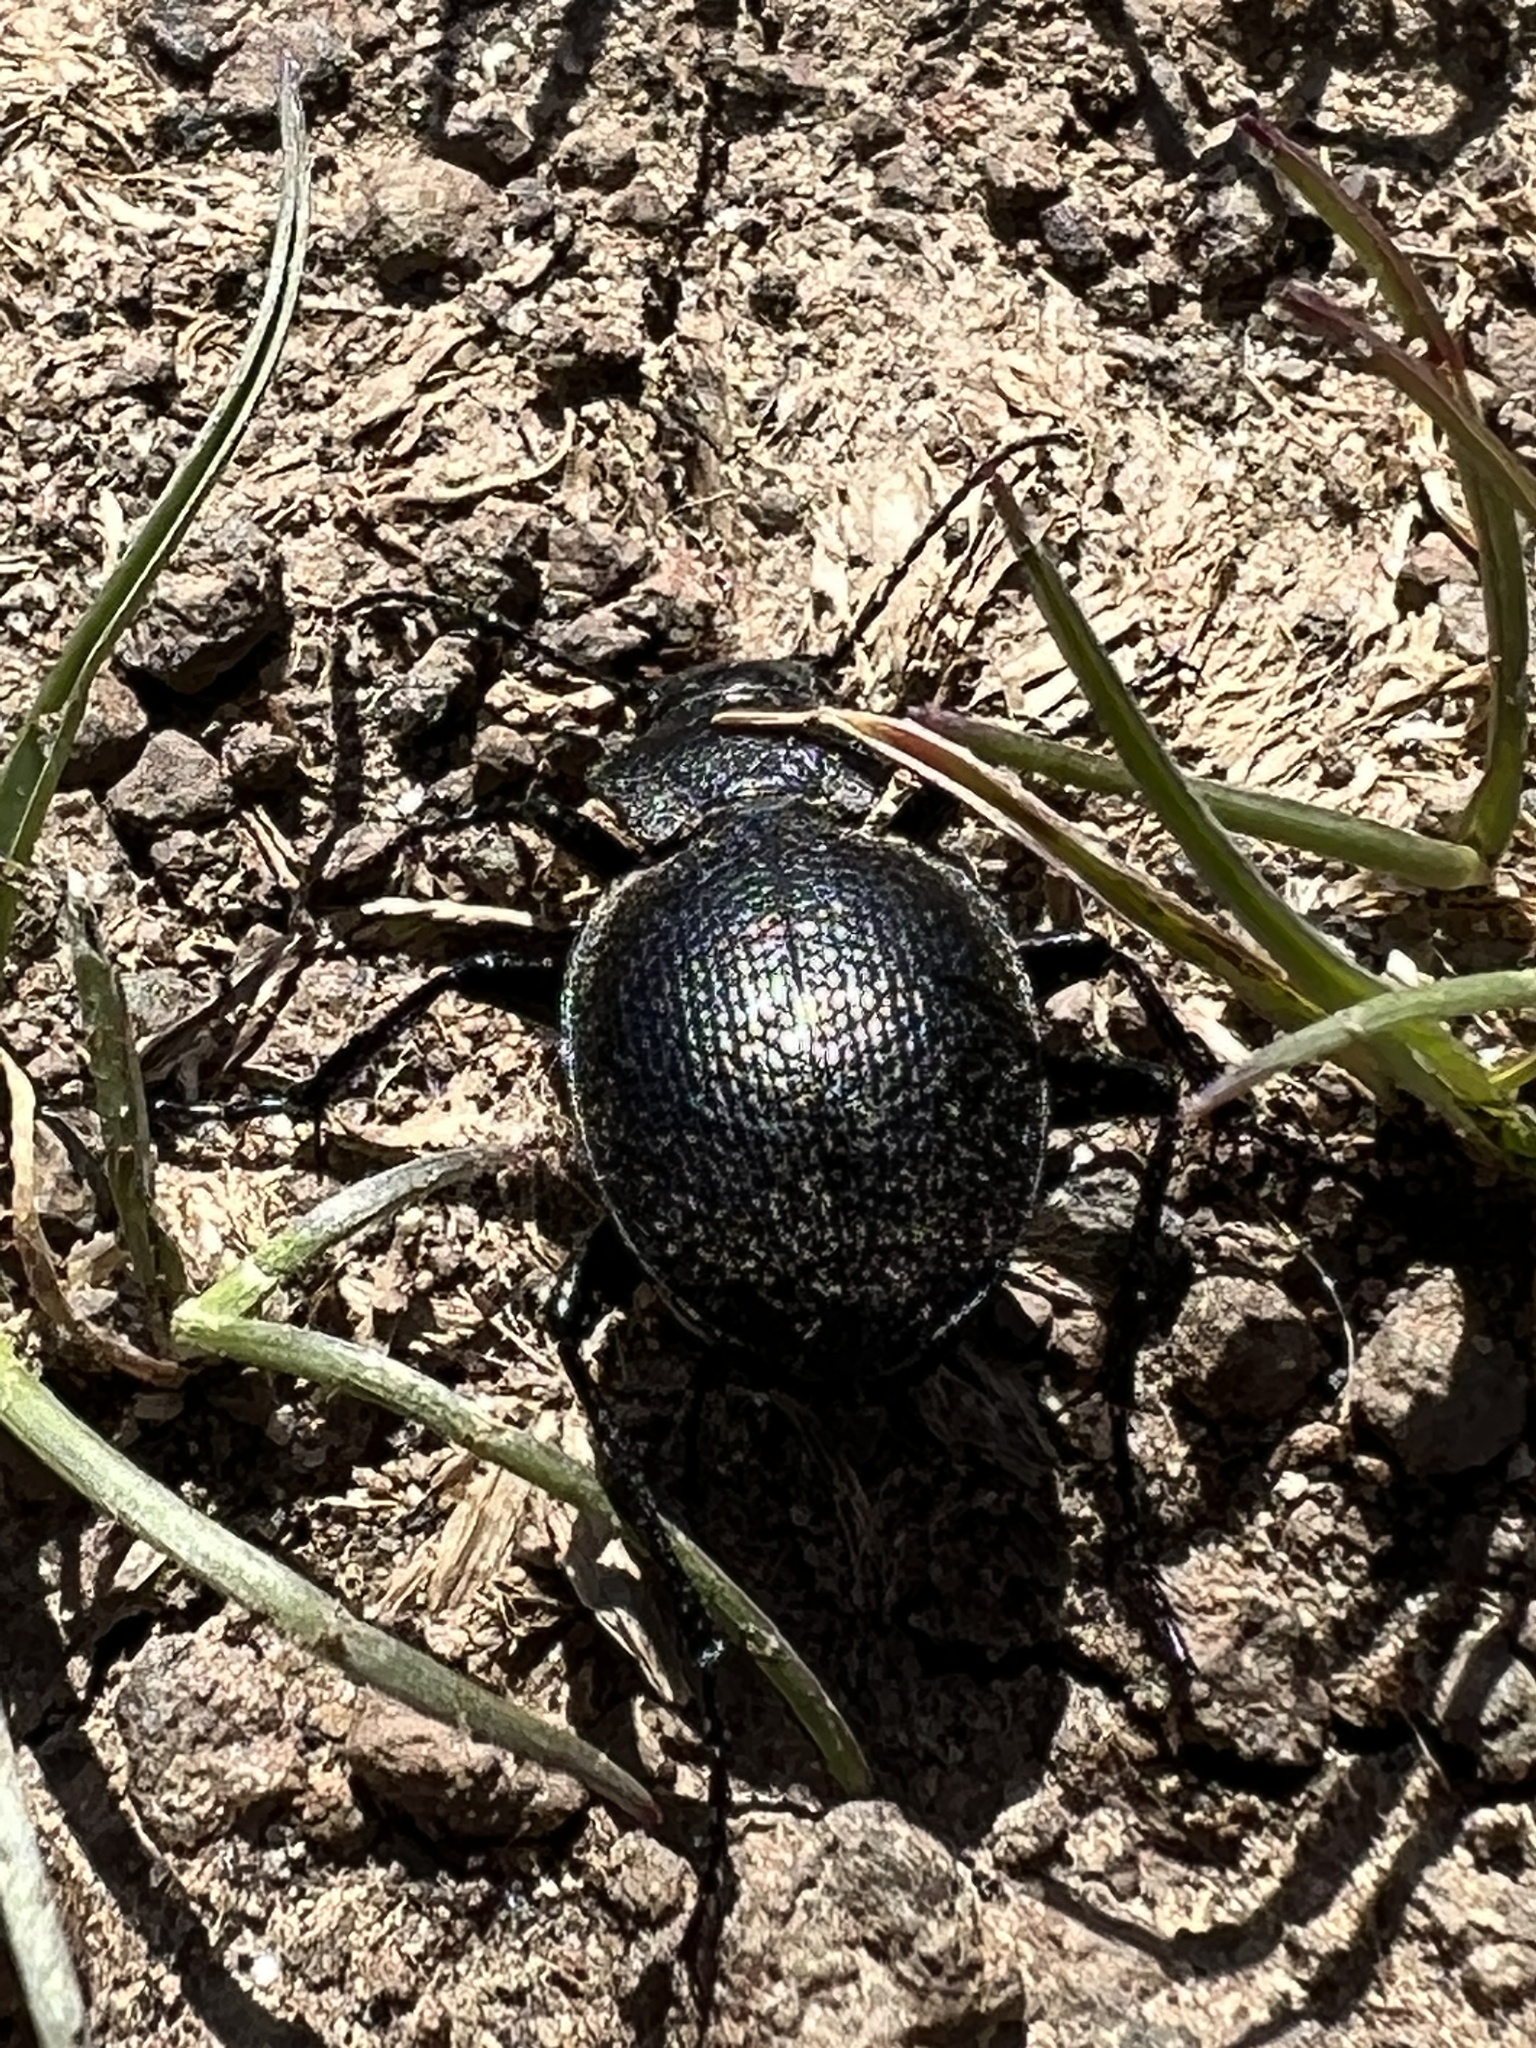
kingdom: Animalia
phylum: Arthropoda
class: Insecta
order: Coleoptera
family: Carabidae
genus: Calosoma
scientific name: Calosoma luxatum
